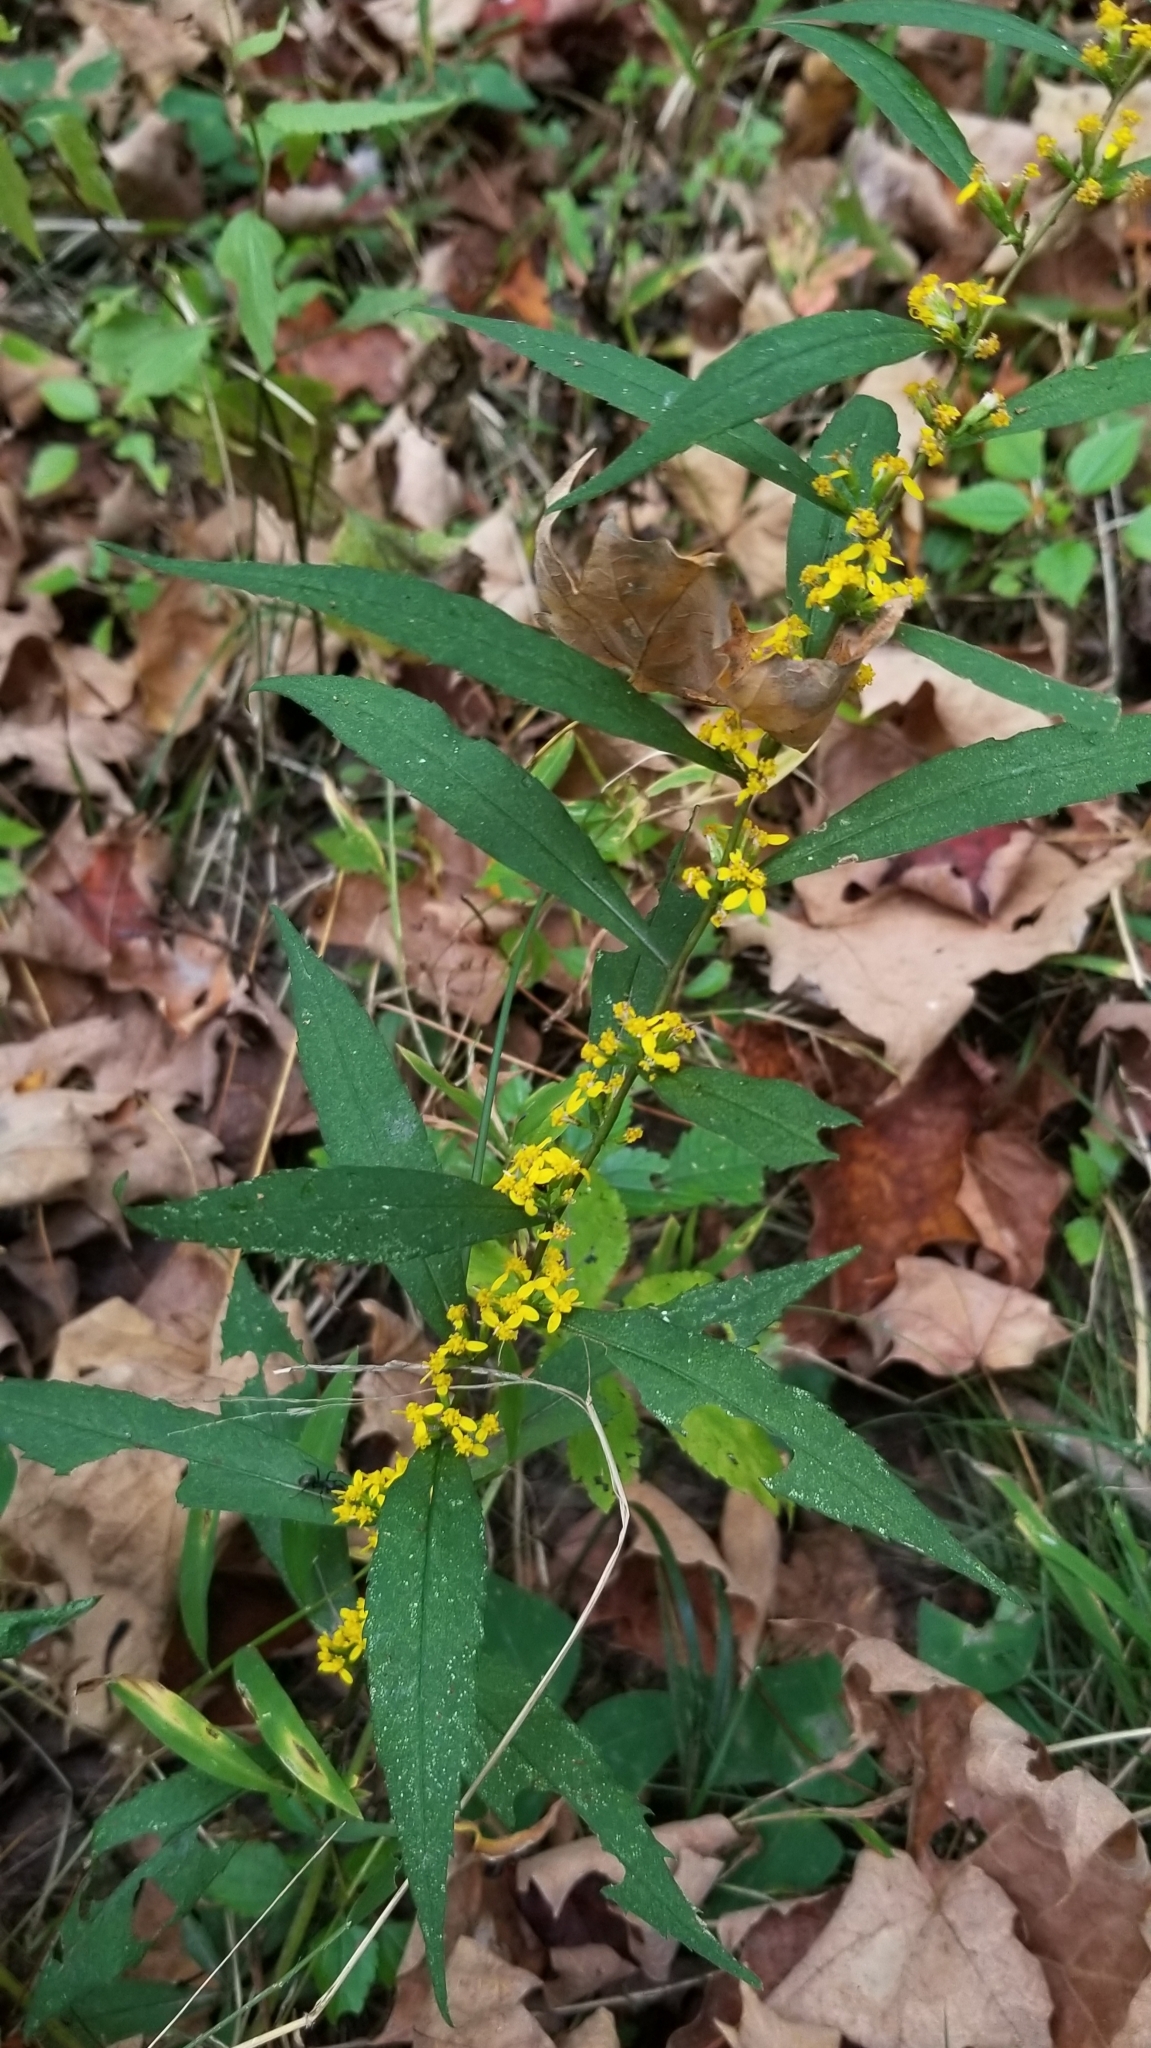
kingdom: Plantae
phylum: Tracheophyta
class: Magnoliopsida
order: Asterales
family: Asteraceae
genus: Solidago
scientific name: Solidago caesia
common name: Woodland goldenrod
